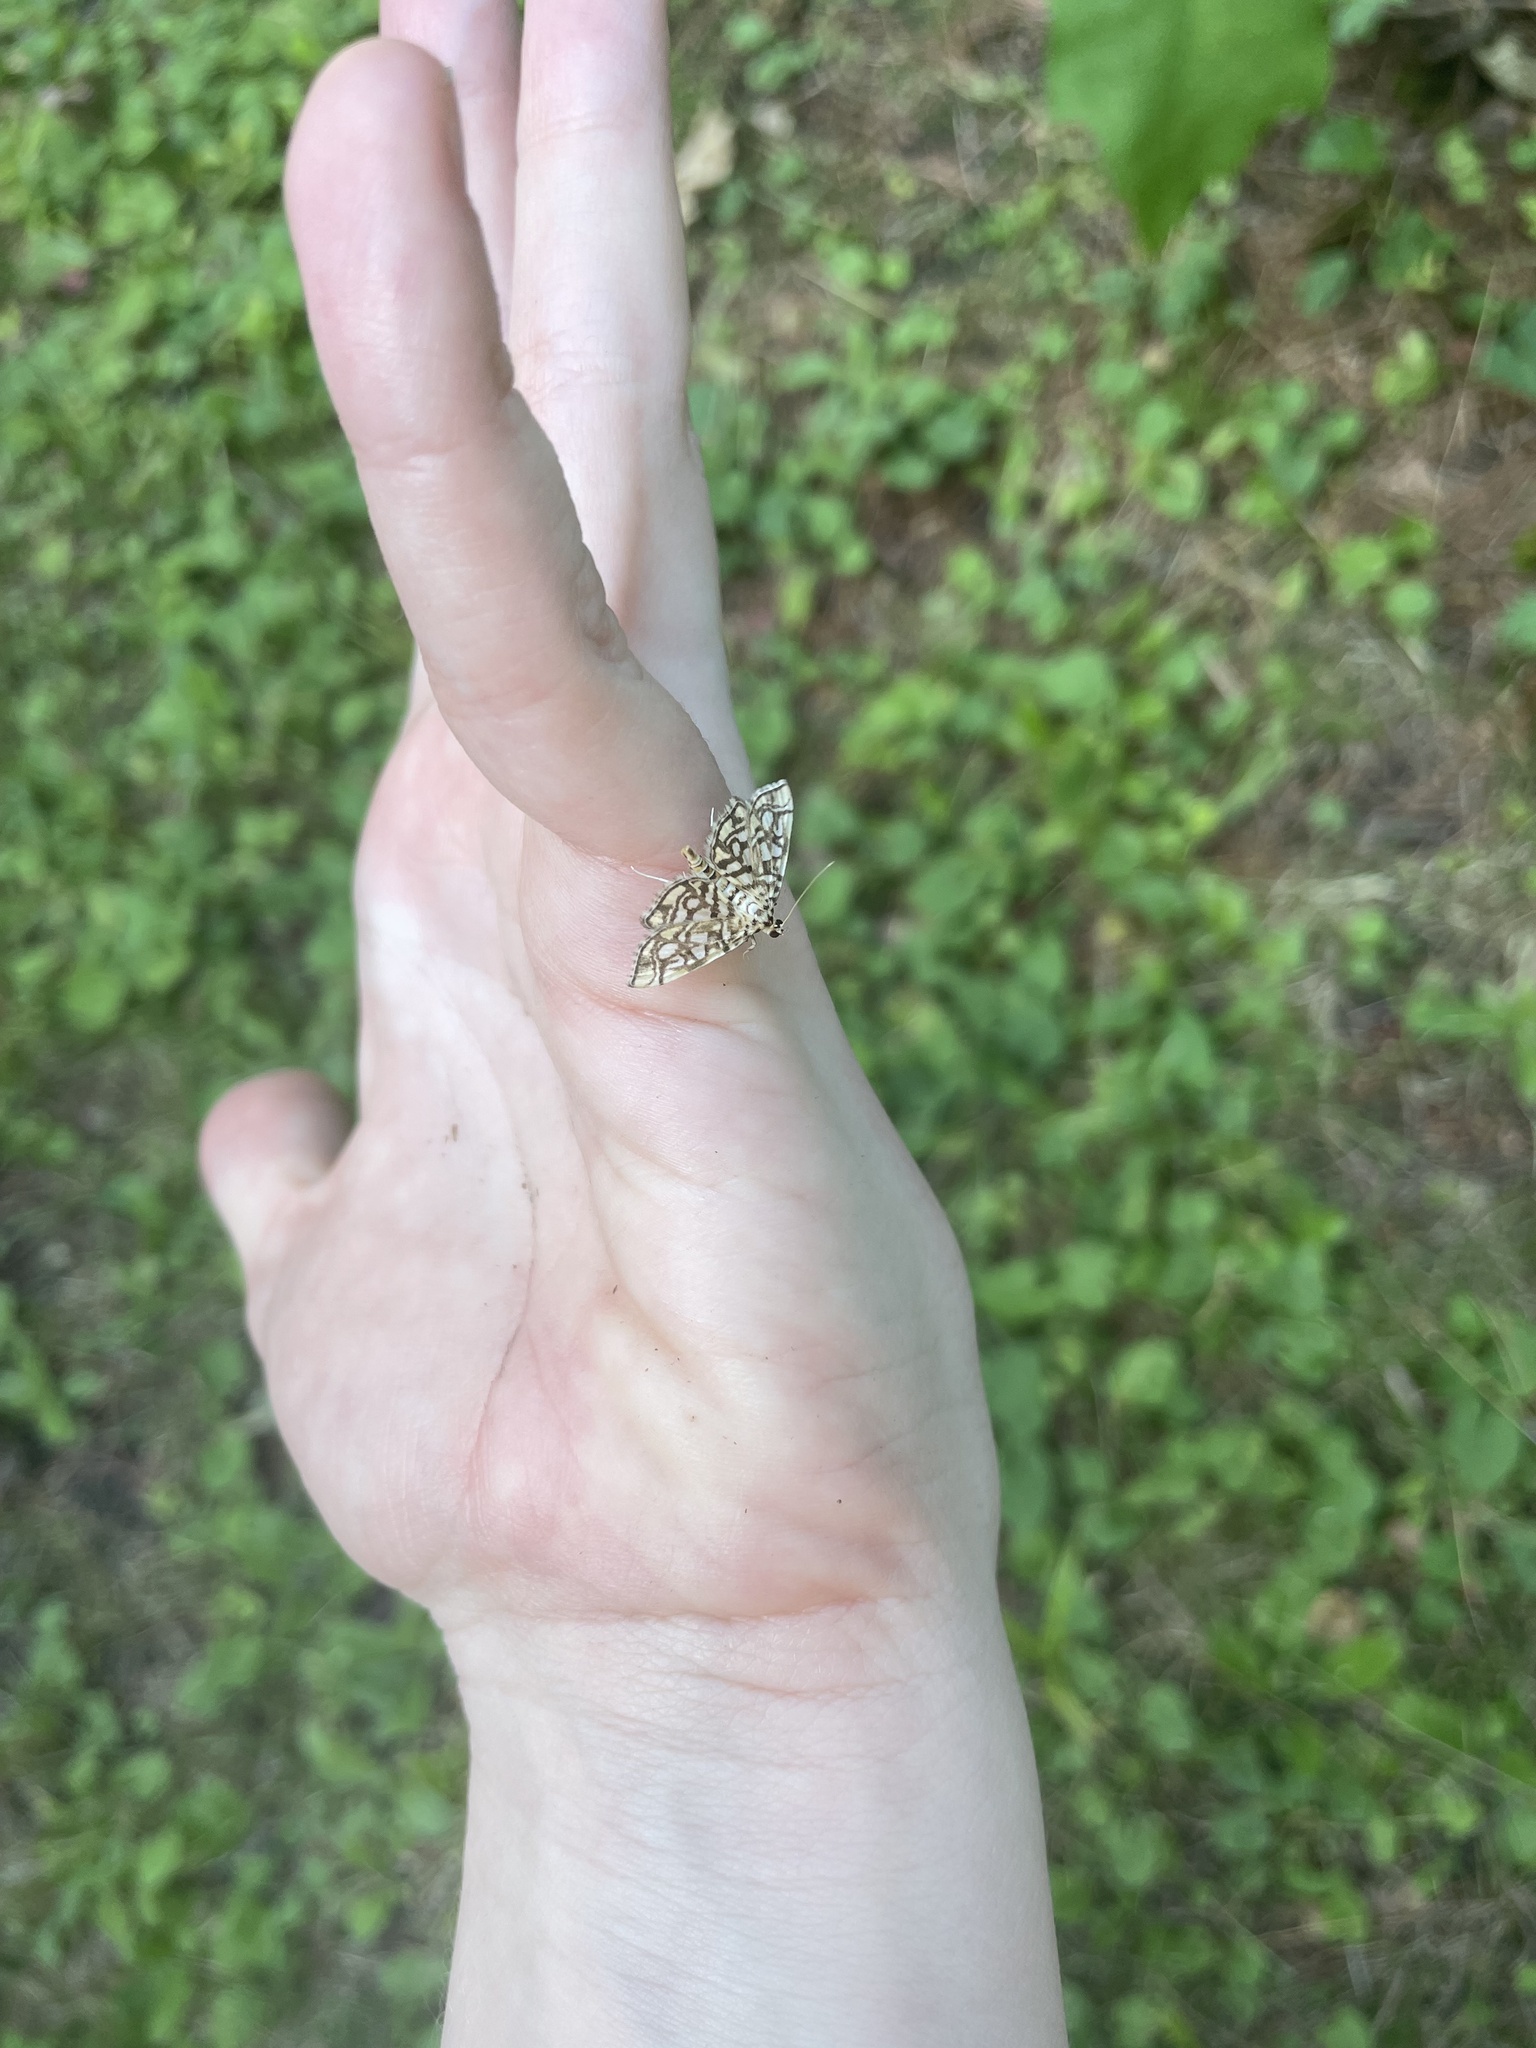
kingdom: Animalia
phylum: Arthropoda
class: Insecta
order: Lepidoptera
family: Crambidae
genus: Lygropia
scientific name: Lygropia rivulalis
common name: Bog lygropia moth
